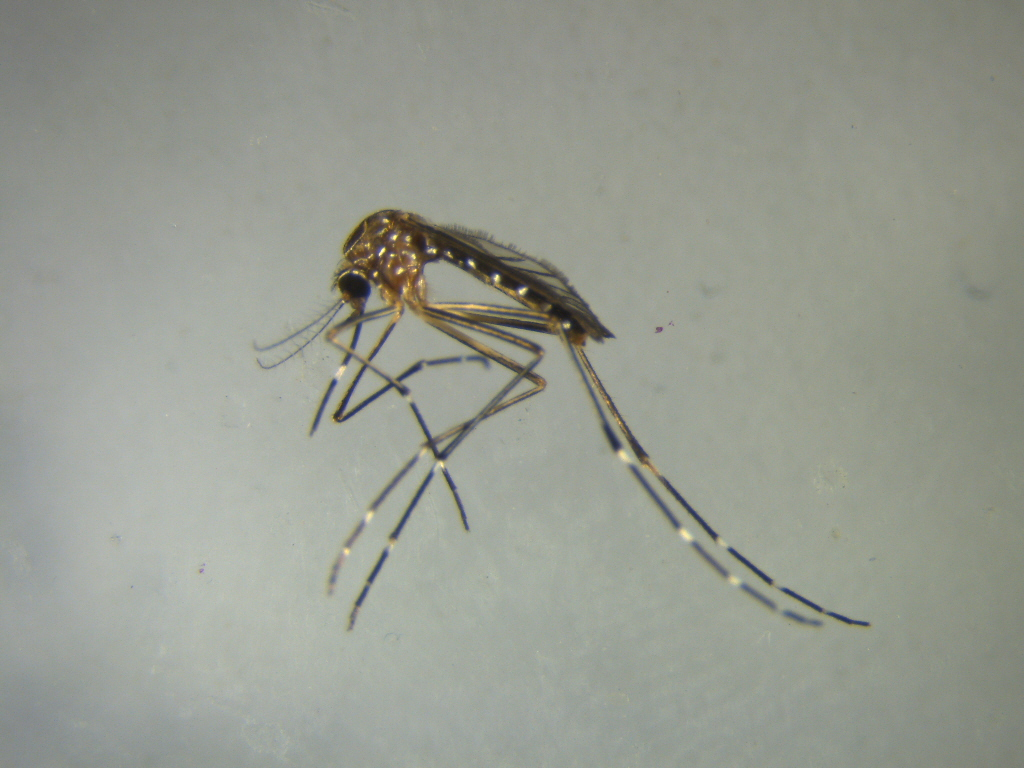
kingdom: Animalia
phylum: Arthropoda
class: Insecta
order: Diptera
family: Culicidae
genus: Aedes
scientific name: Aedes notoscriptus
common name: Australian backyard mosquito
